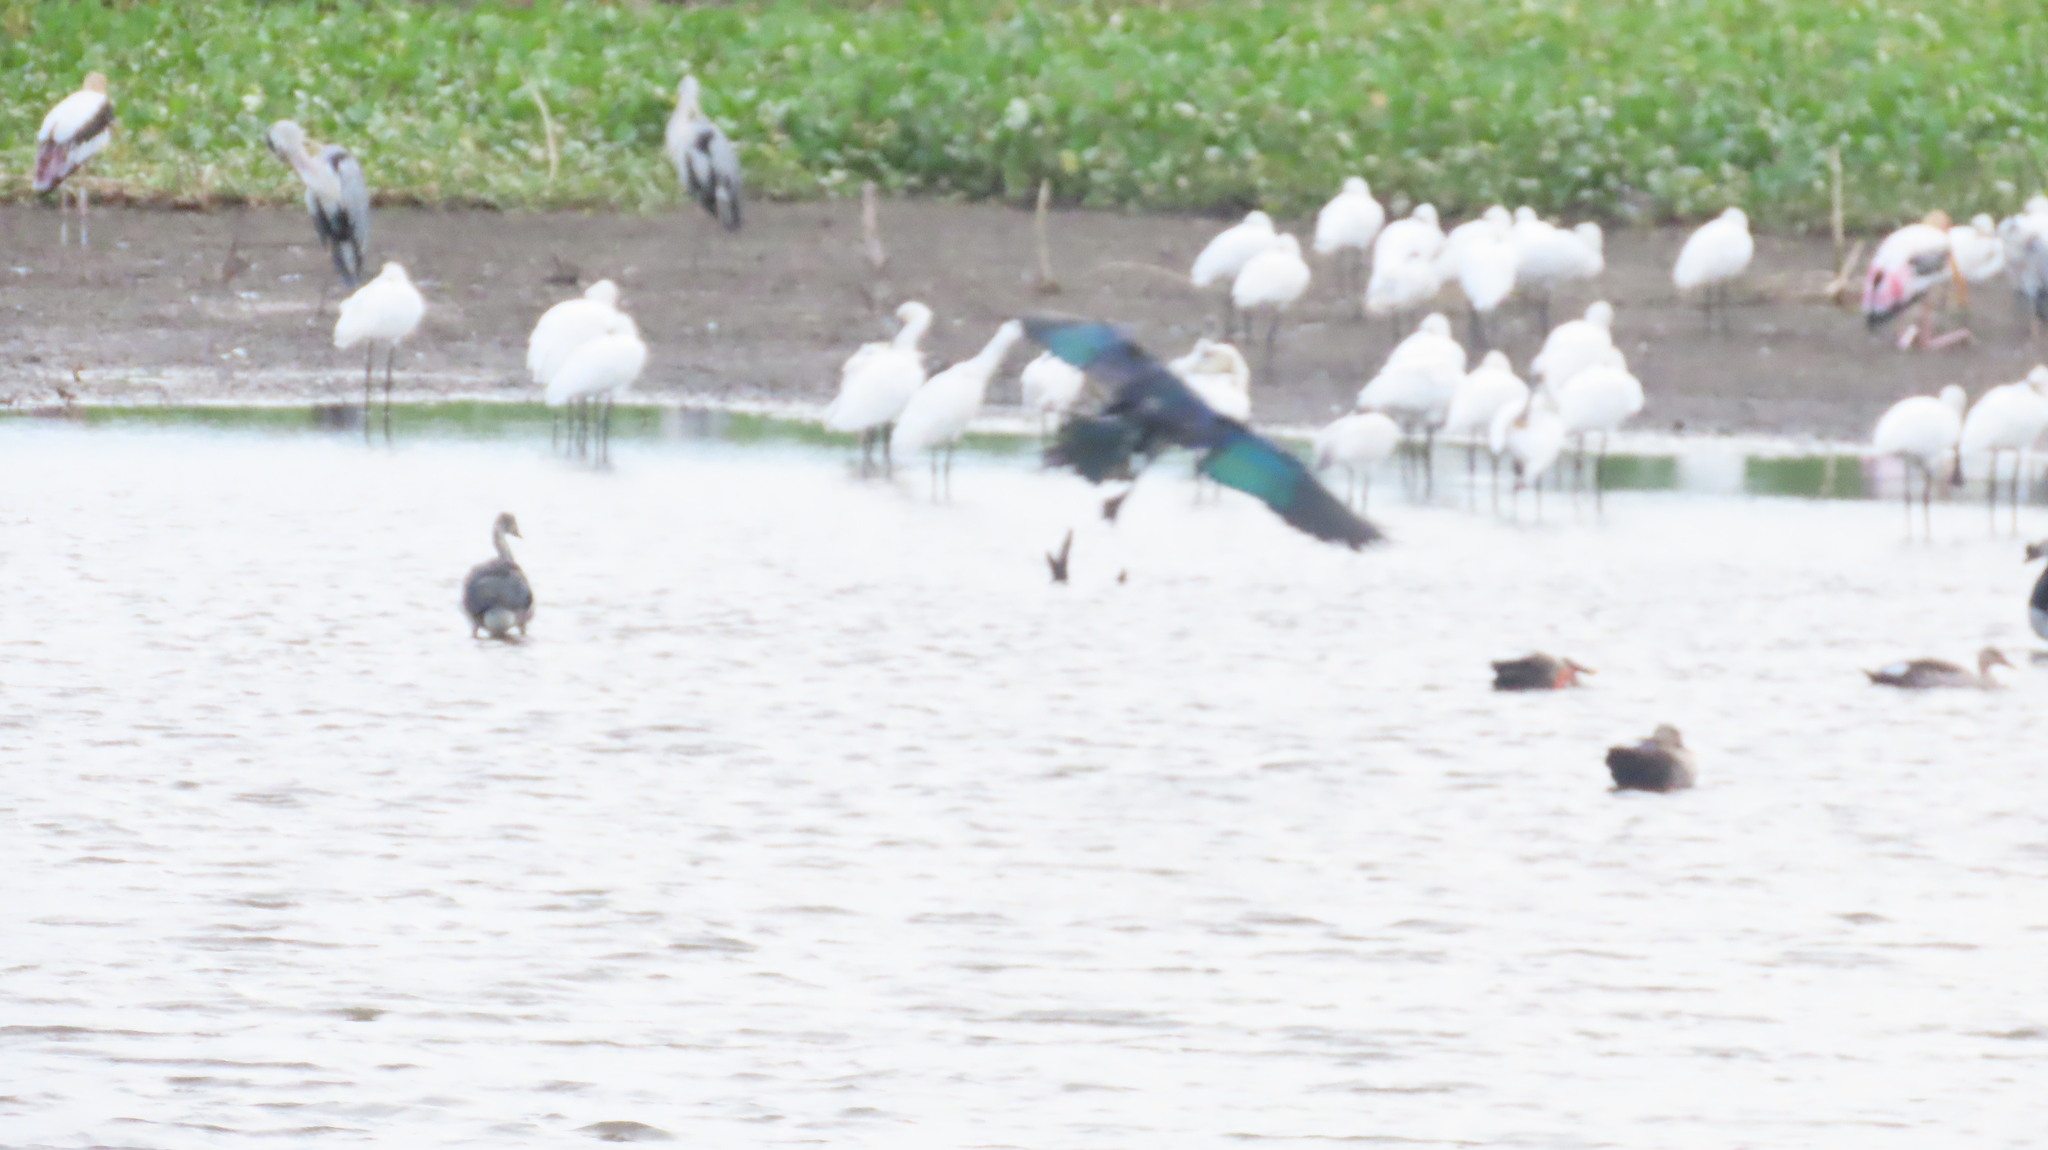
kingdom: Animalia
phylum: Chordata
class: Aves
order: Anseriformes
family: Anatidae
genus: Sarkidiornis
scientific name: Sarkidiornis melanotos
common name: Comb duck
